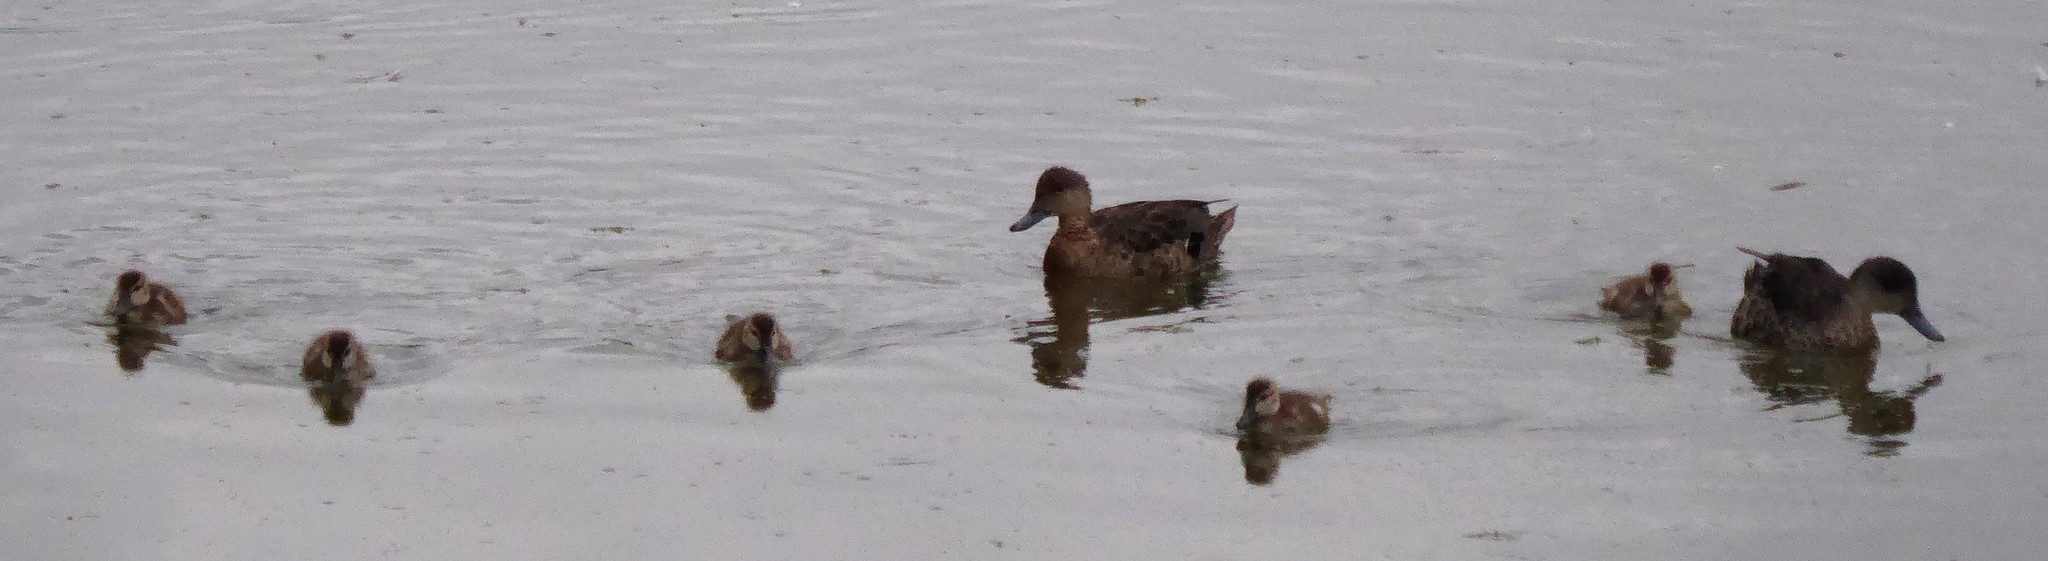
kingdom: Animalia
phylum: Chordata
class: Aves
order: Anseriformes
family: Anatidae
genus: Anas
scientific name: Anas gracilis
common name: Grey teal
